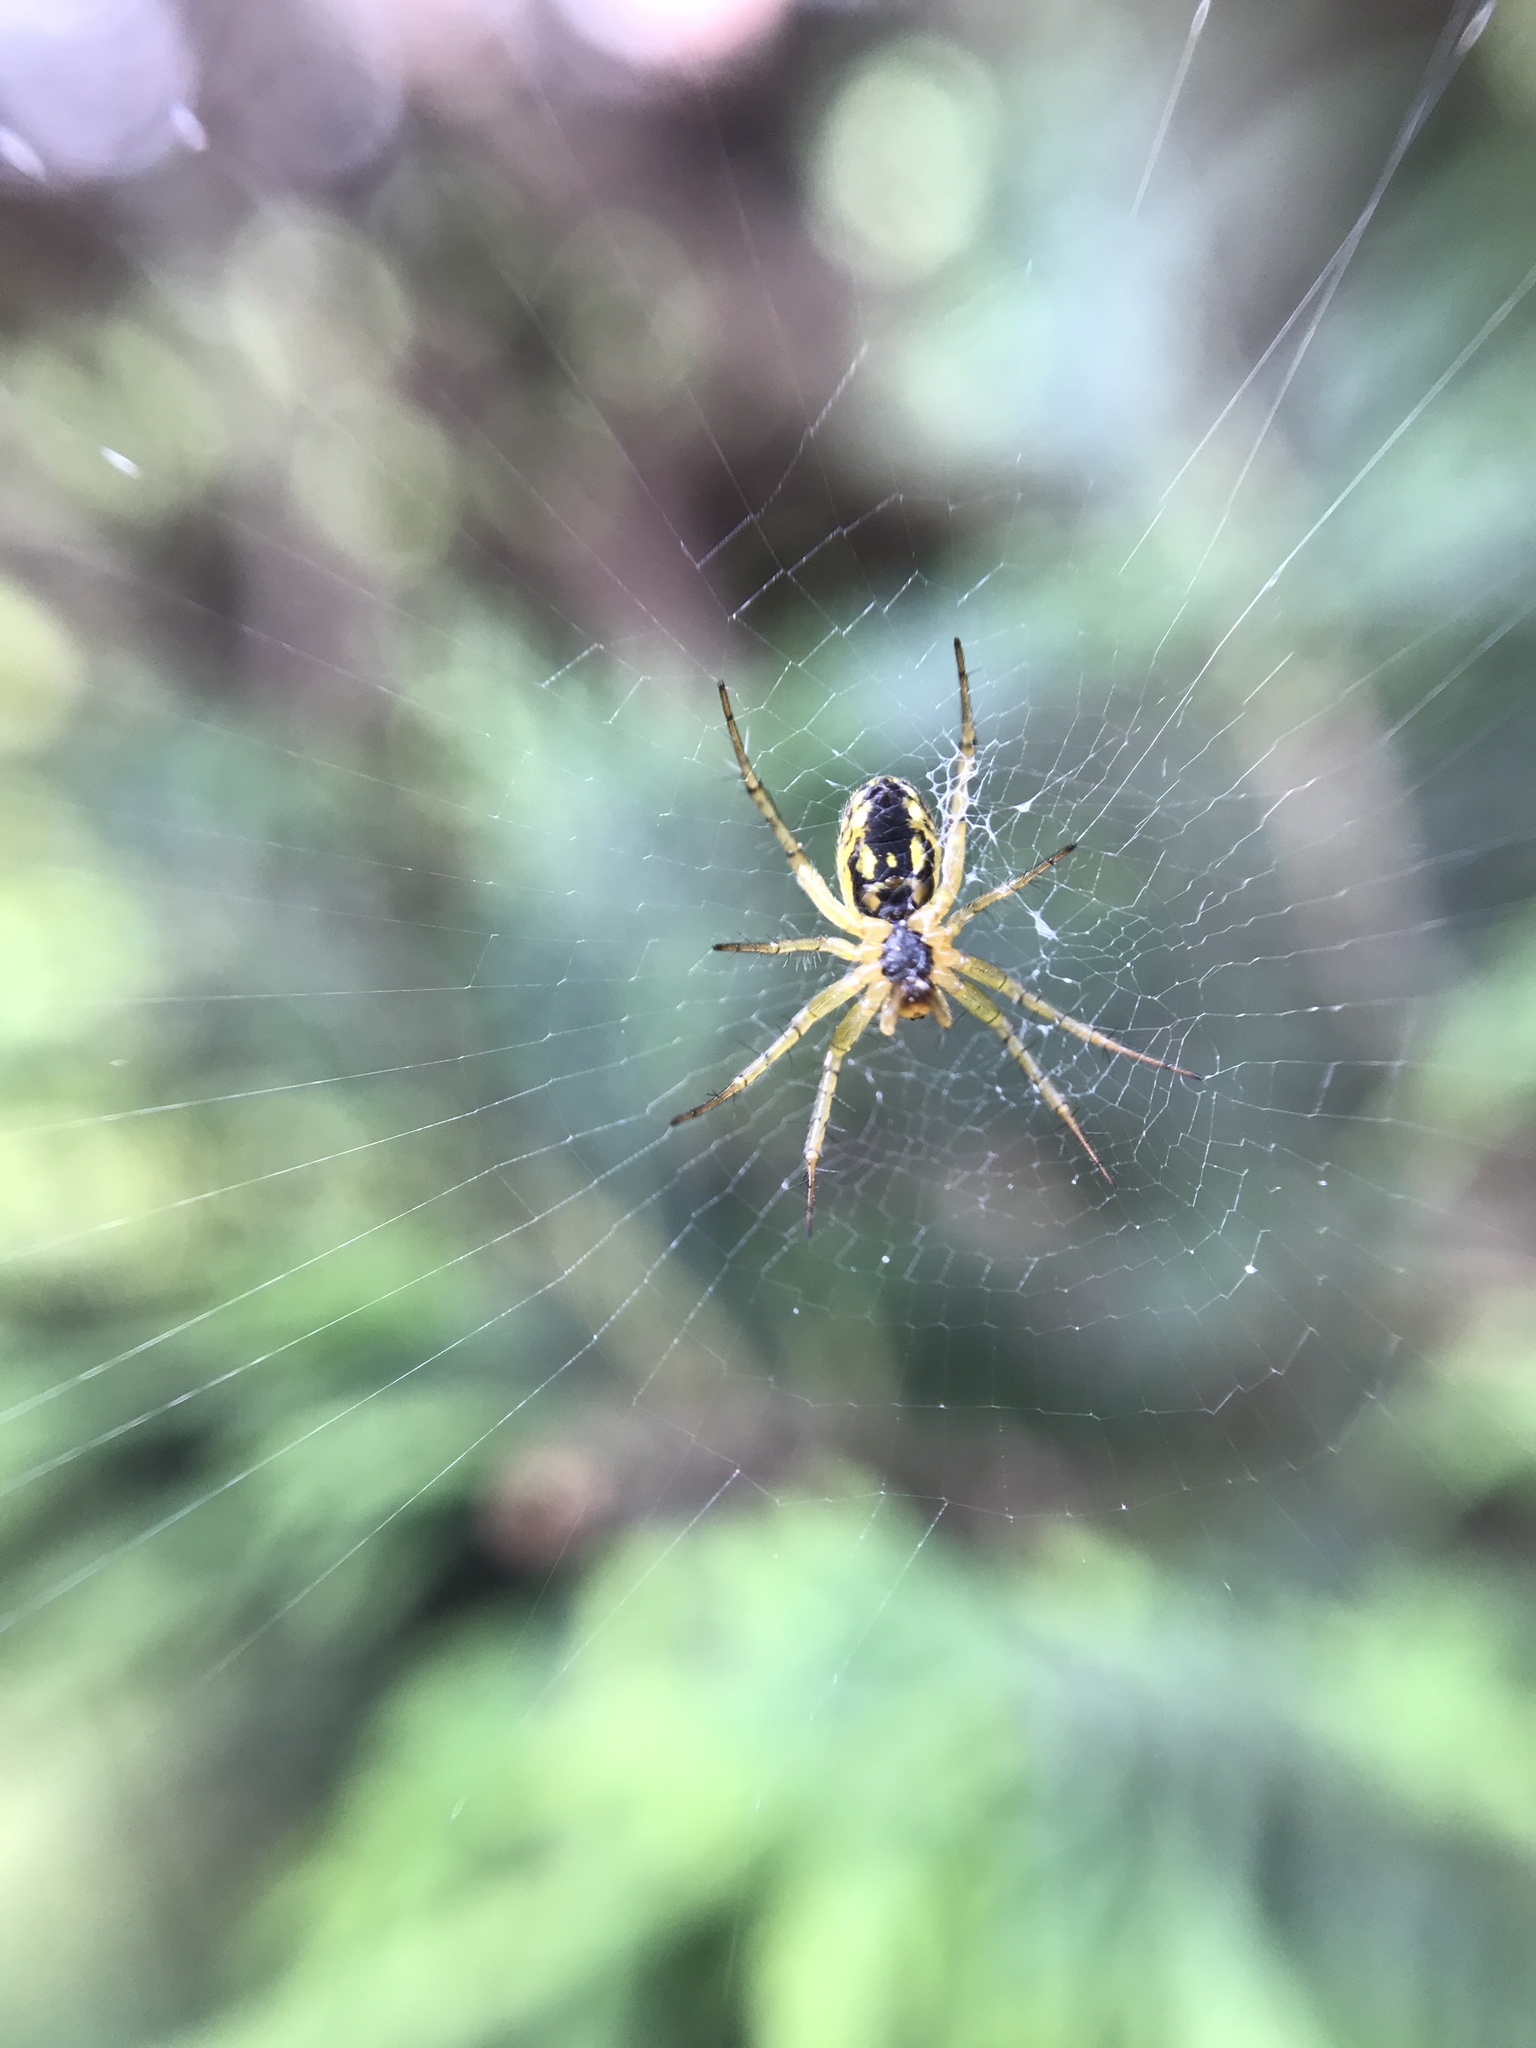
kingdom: Animalia
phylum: Arthropoda
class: Arachnida
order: Araneae
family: Araneidae
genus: Mangora
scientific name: Mangora acalypha
